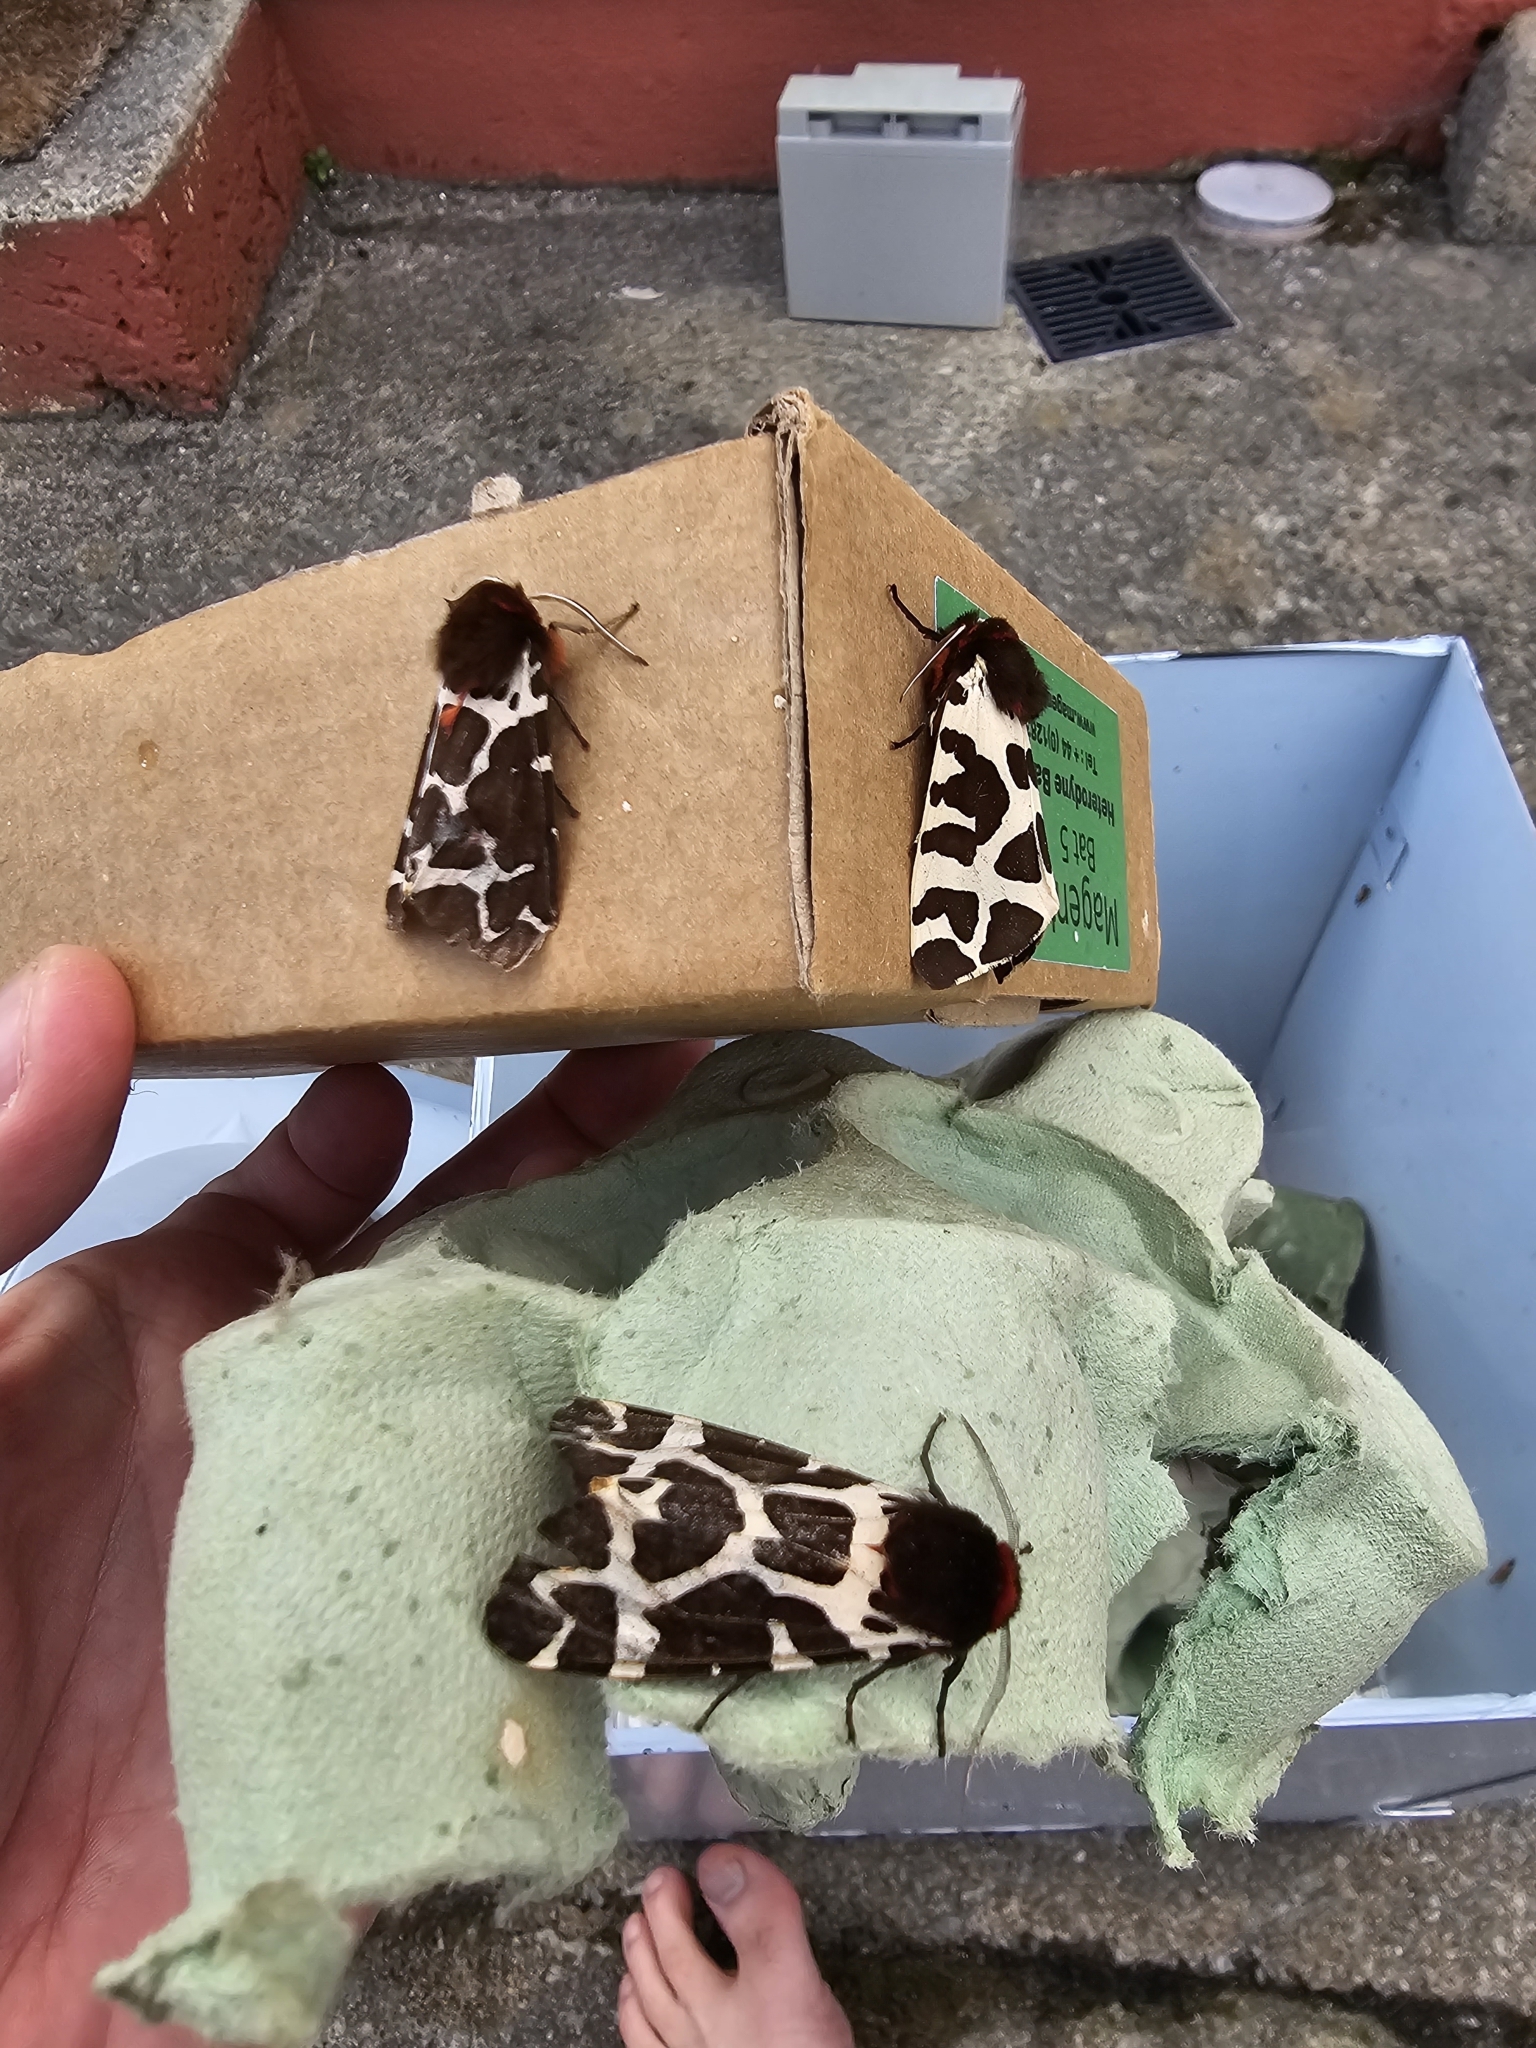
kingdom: Animalia
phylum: Arthropoda
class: Insecta
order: Lepidoptera
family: Erebidae
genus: Arctia
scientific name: Arctia caja
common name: Garden tiger
